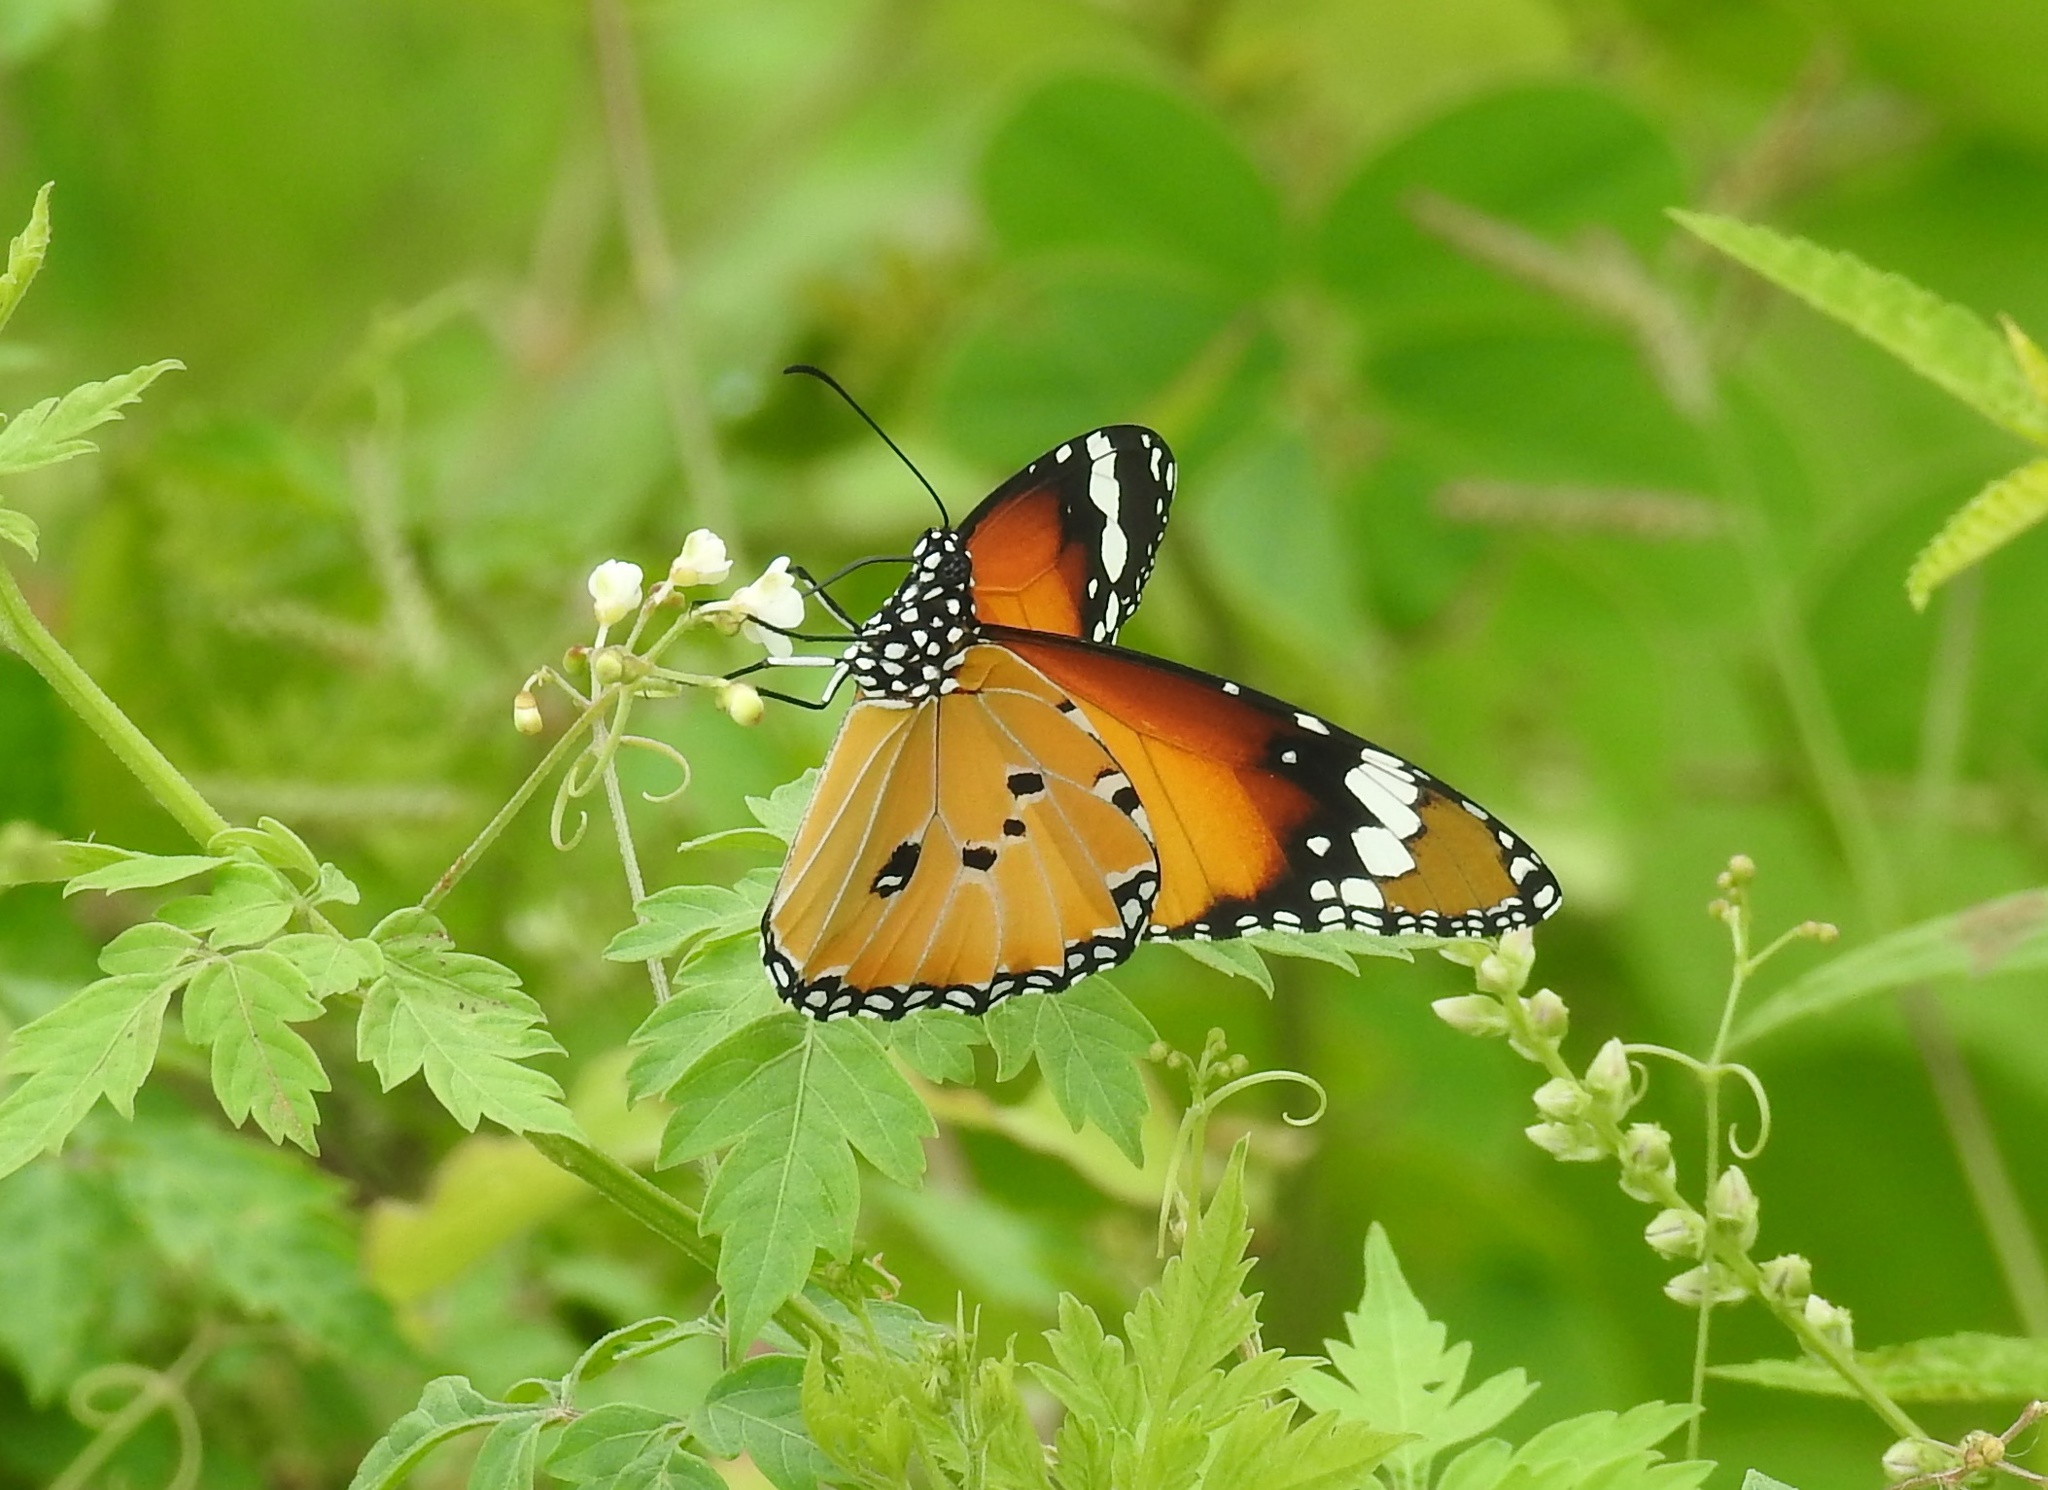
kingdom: Animalia
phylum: Arthropoda
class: Insecta
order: Lepidoptera
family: Nymphalidae
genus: Danaus
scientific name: Danaus chrysippus
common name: Plain tiger
